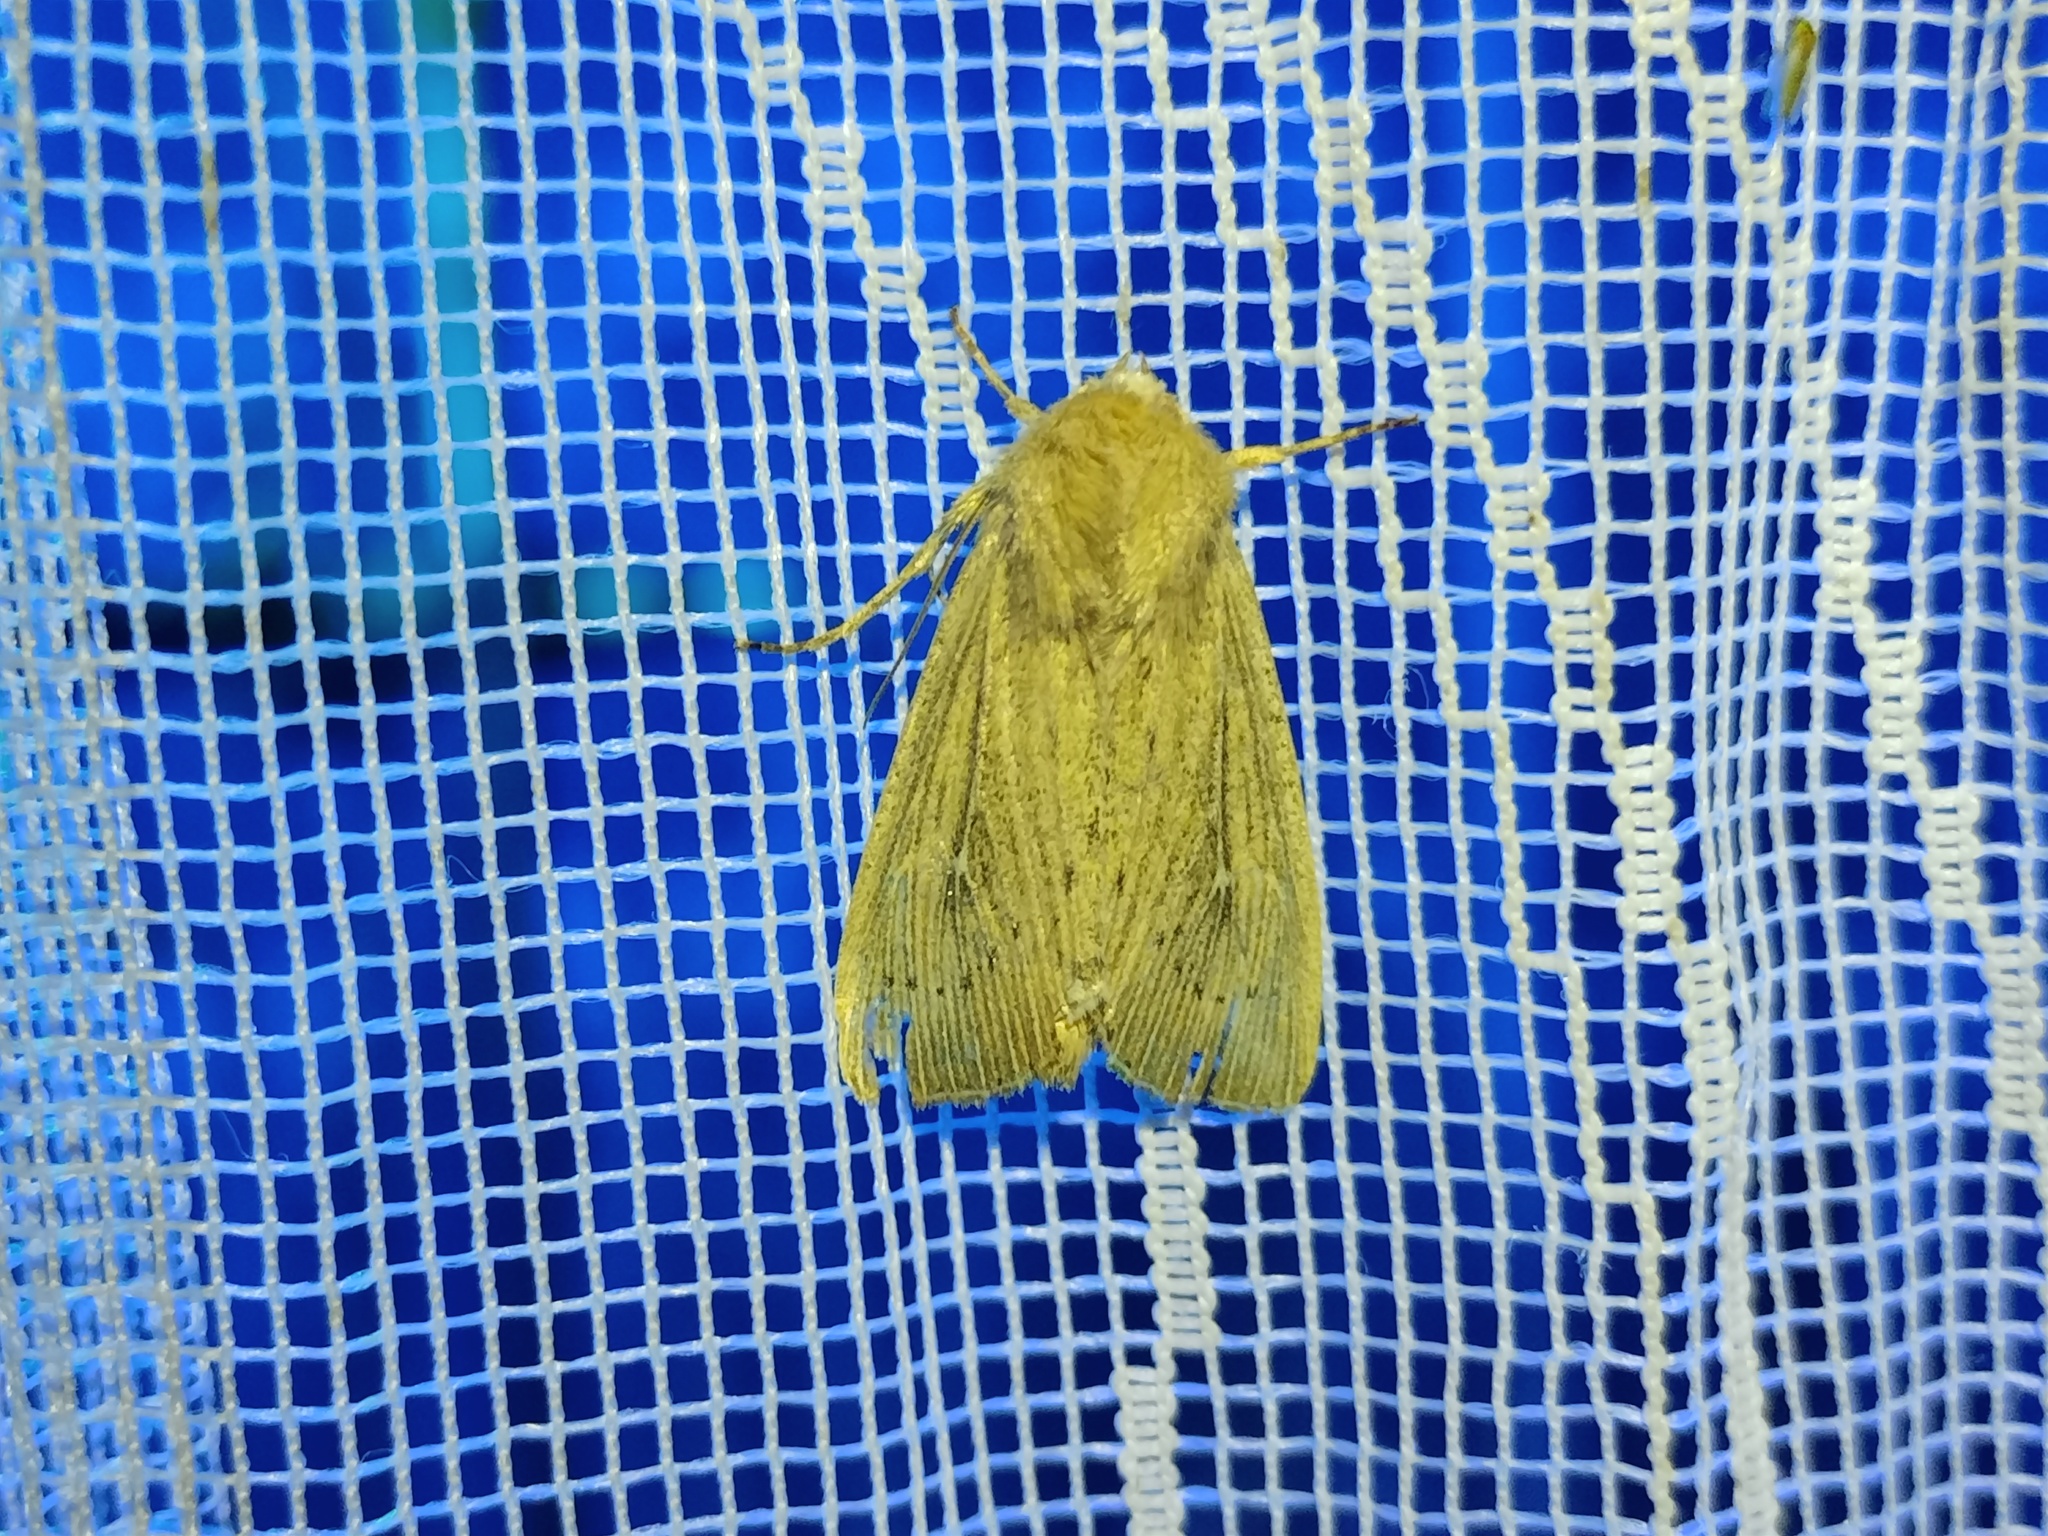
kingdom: Animalia
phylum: Arthropoda
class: Insecta
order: Lepidoptera
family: Noctuidae
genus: Leucania
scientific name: Leucania obsoleta
